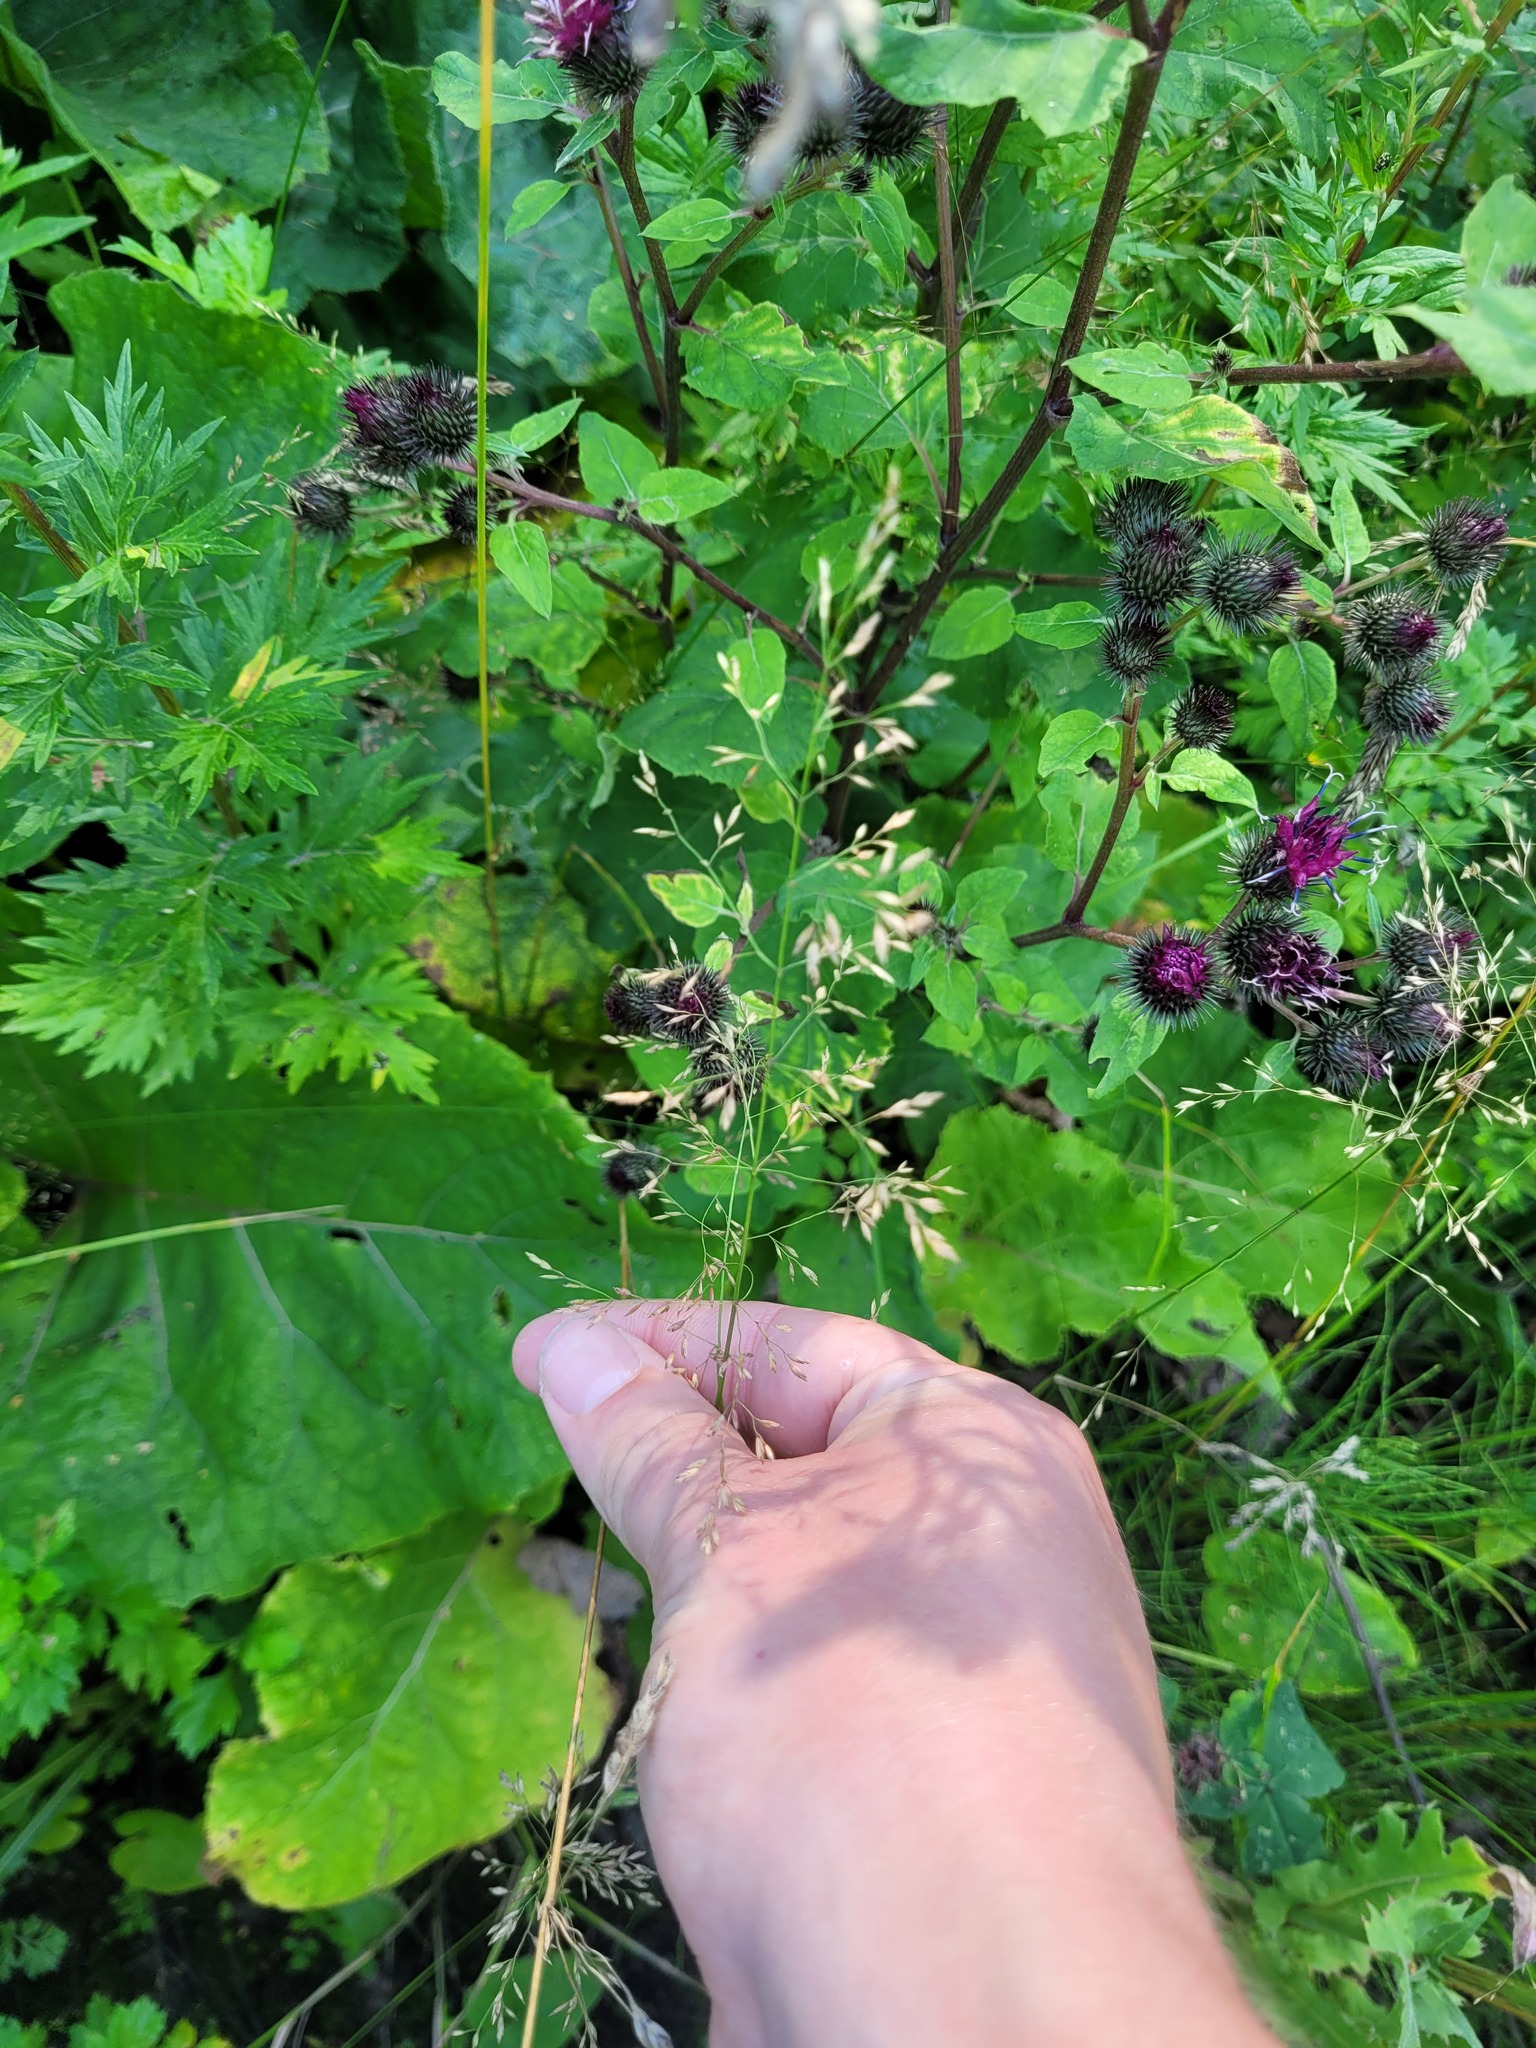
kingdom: Plantae
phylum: Tracheophyta
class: Liliopsida
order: Poales
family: Poaceae
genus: Poa
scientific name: Poa palustris
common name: Swamp meadow-grass
